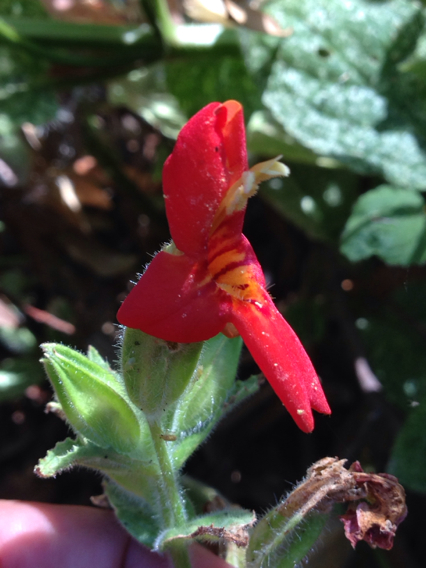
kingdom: Plantae
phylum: Tracheophyta
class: Magnoliopsida
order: Lamiales
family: Phrymaceae
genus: Erythranthe
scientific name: Erythranthe cardinalis
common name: Scarlet monkey-flower
